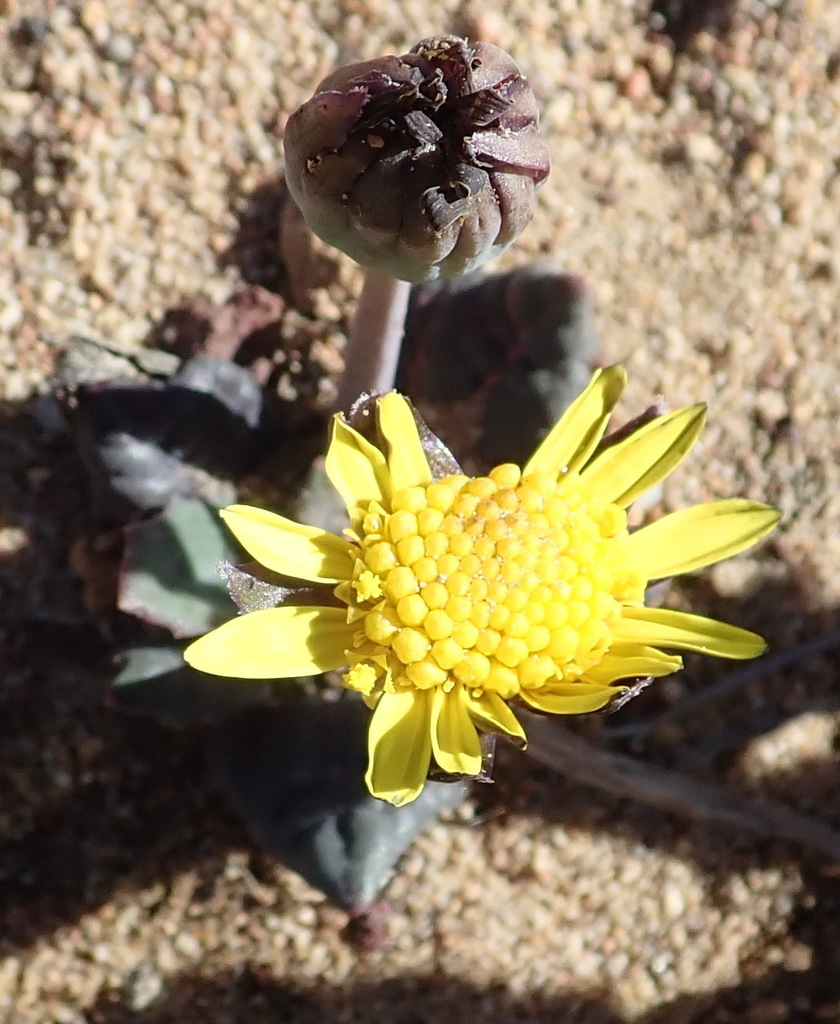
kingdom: Plantae
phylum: Tracheophyta
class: Magnoliopsida
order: Asterales
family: Asteraceae
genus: Othonna
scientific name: Othonna oleracea
